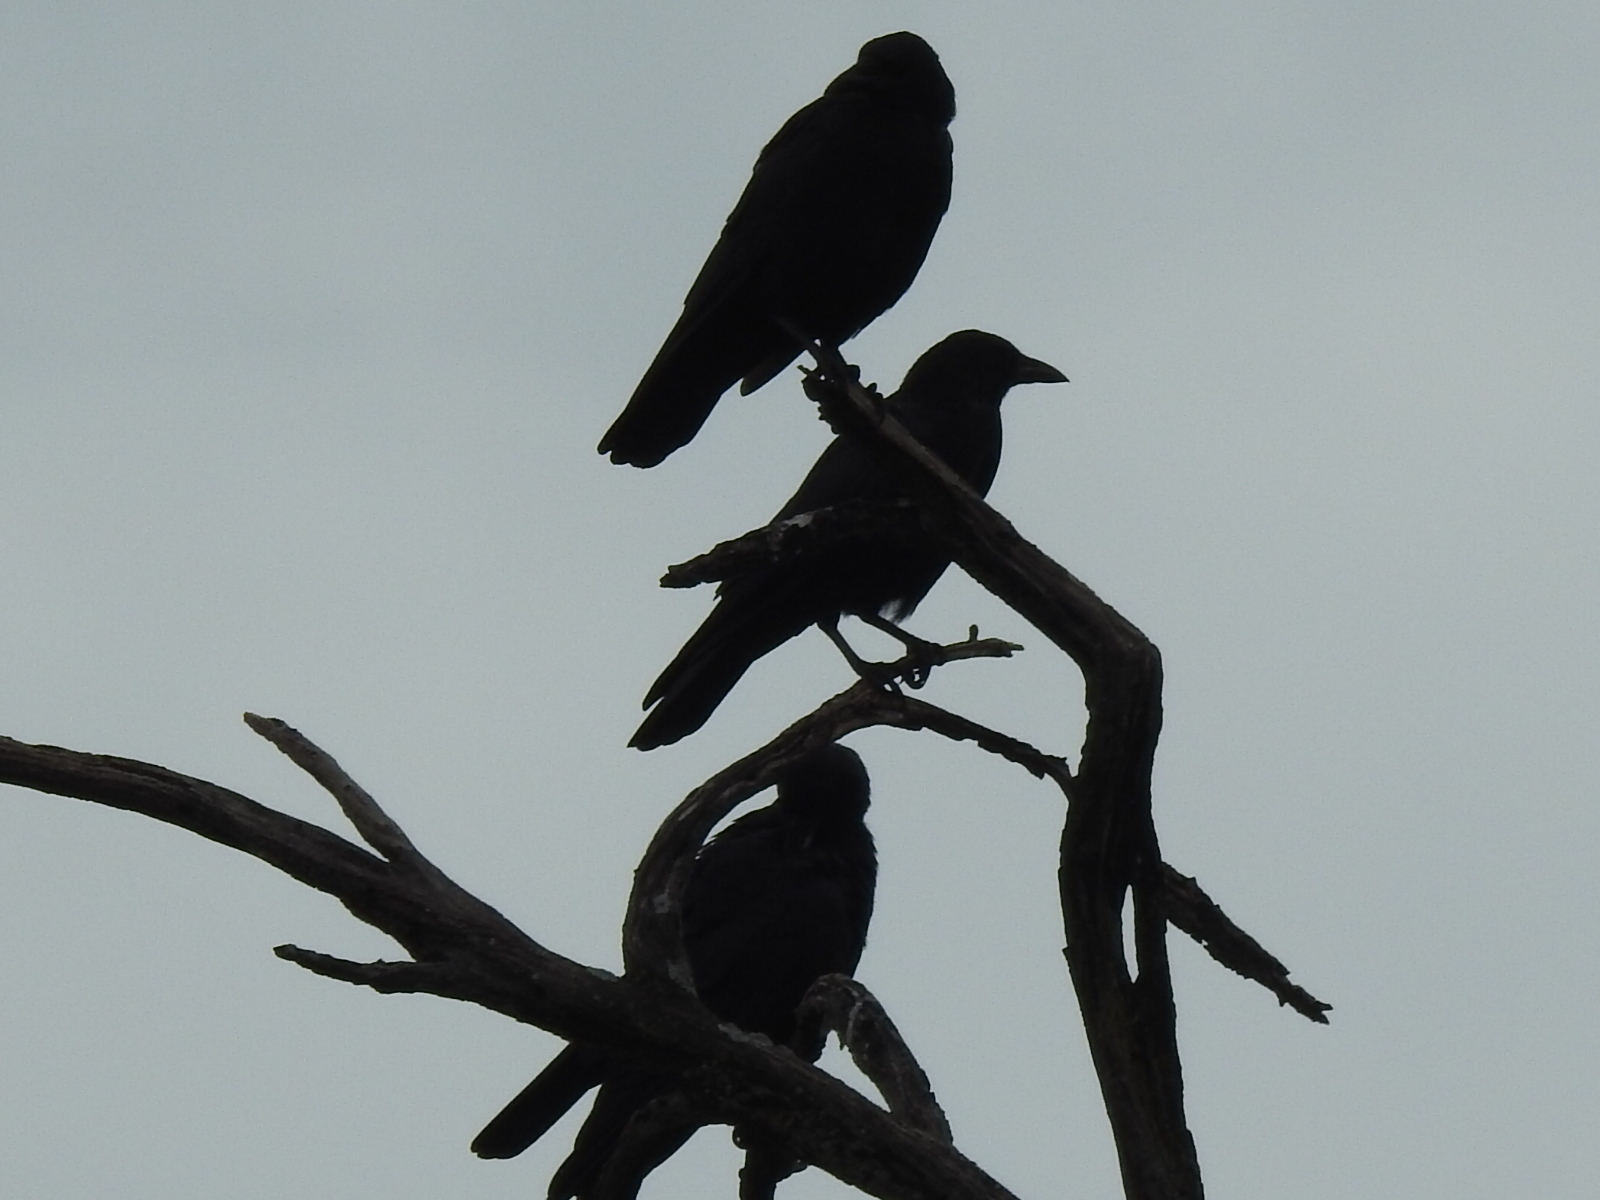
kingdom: Animalia
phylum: Chordata
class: Aves
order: Passeriformes
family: Corvidae
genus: Corvus
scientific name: Corvus brachyrhynchos
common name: American crow
